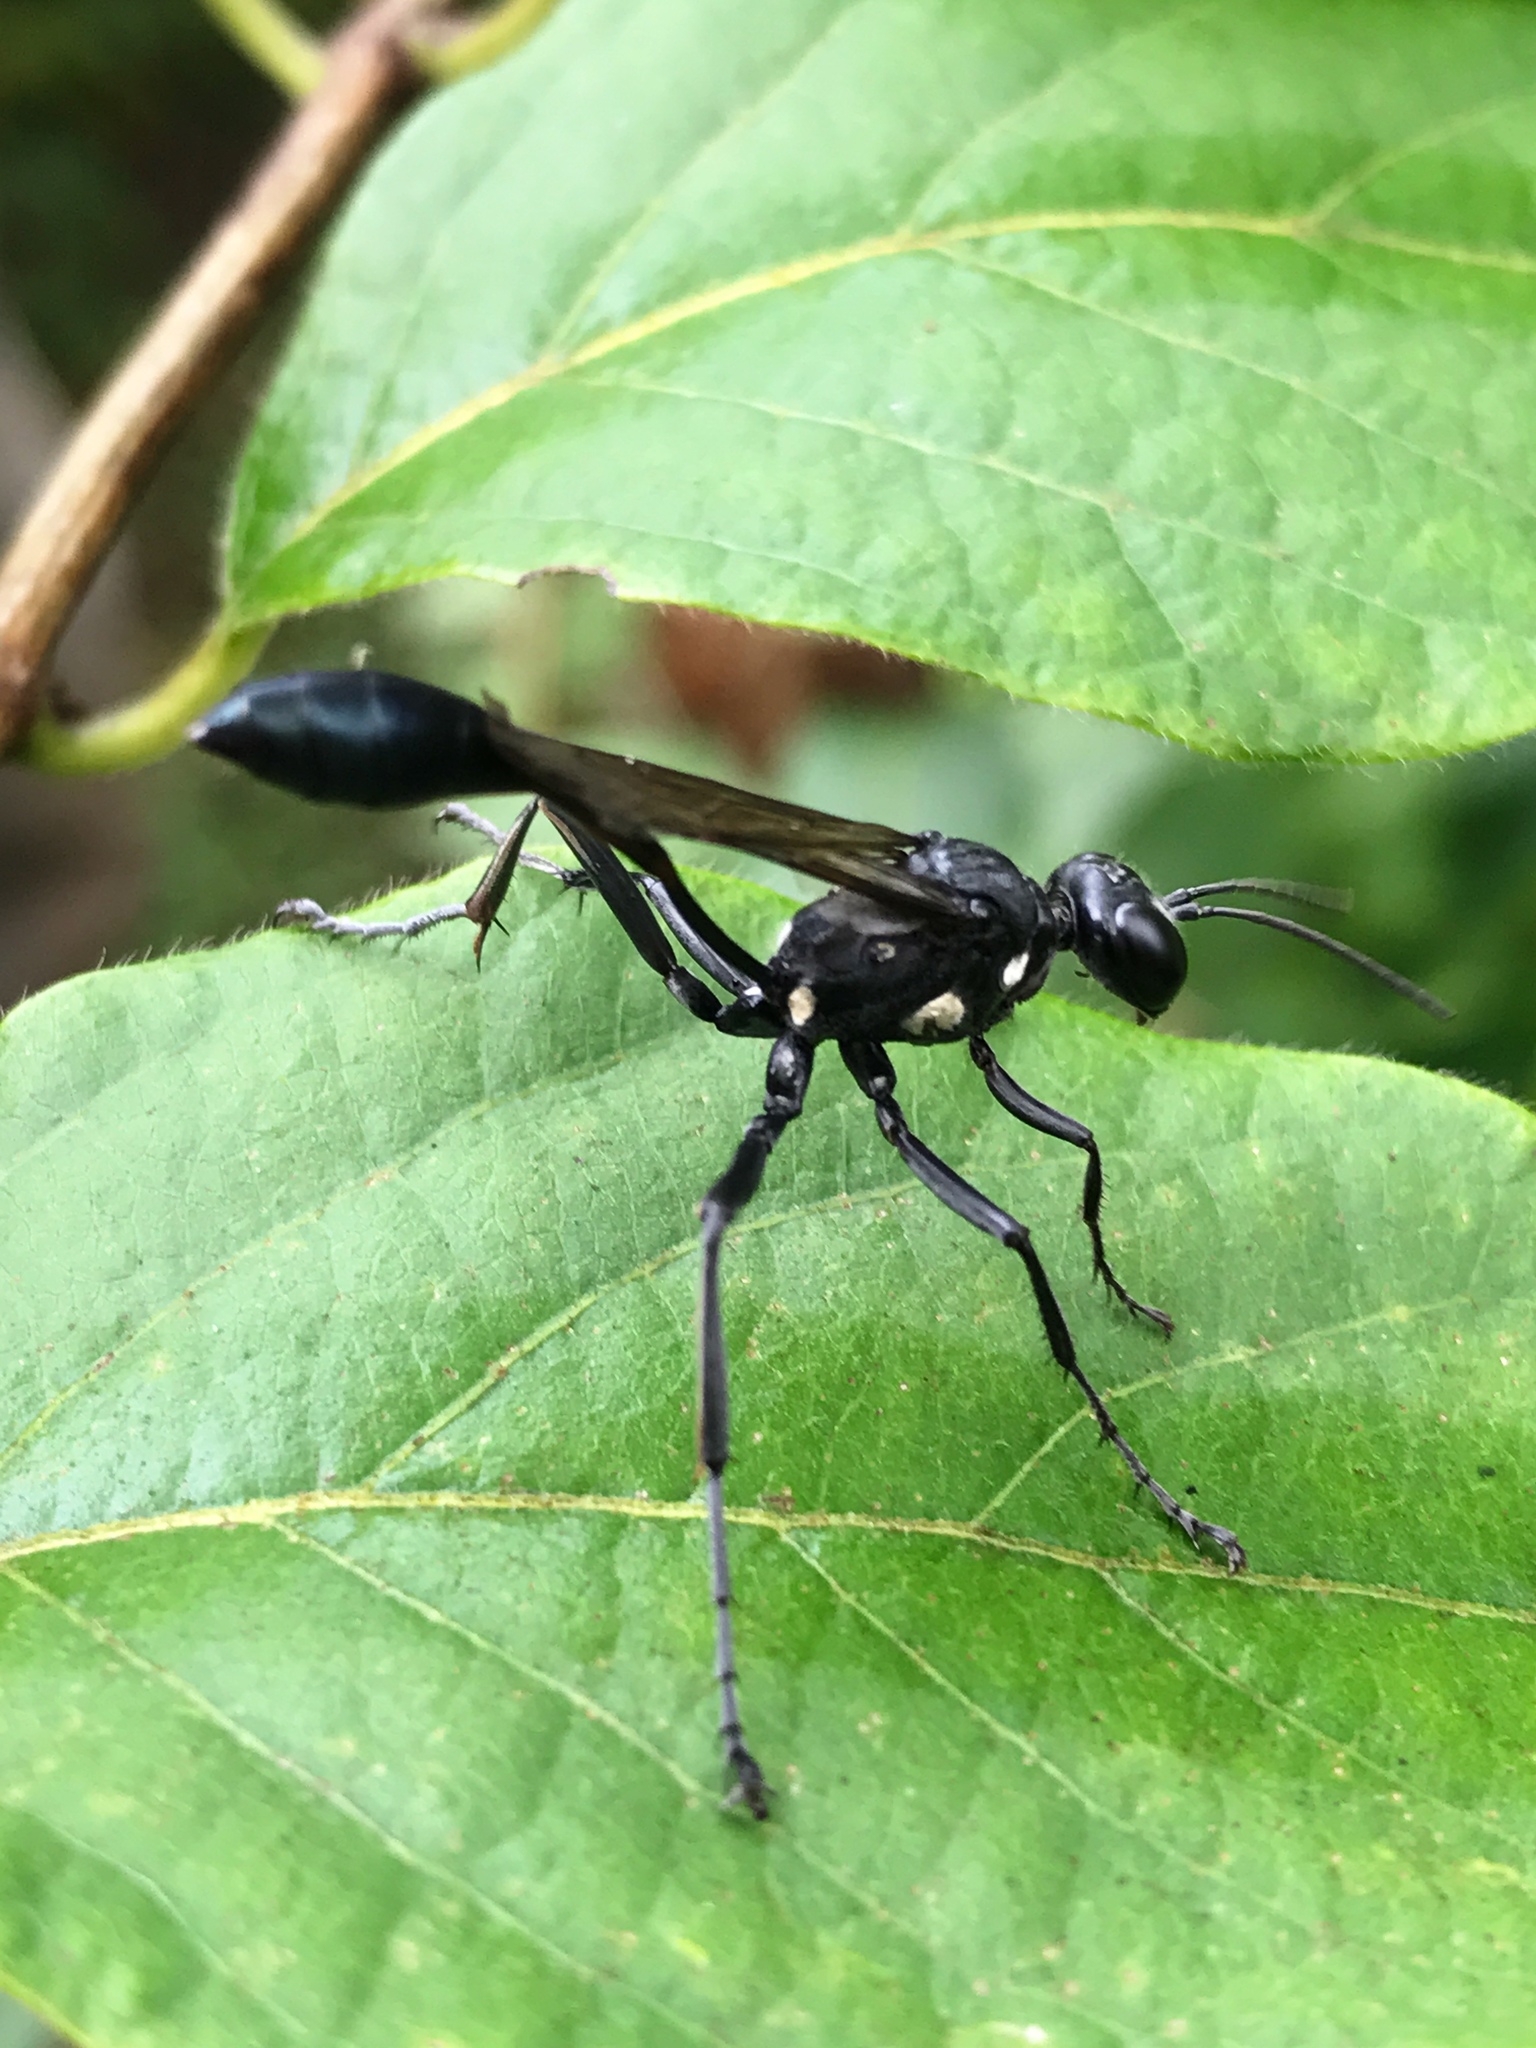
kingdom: Animalia
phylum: Arthropoda
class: Insecta
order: Hymenoptera
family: Sphecidae
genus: Eremnophila
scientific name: Eremnophila aureonotata
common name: Gold-marked thread-waisted wasp
